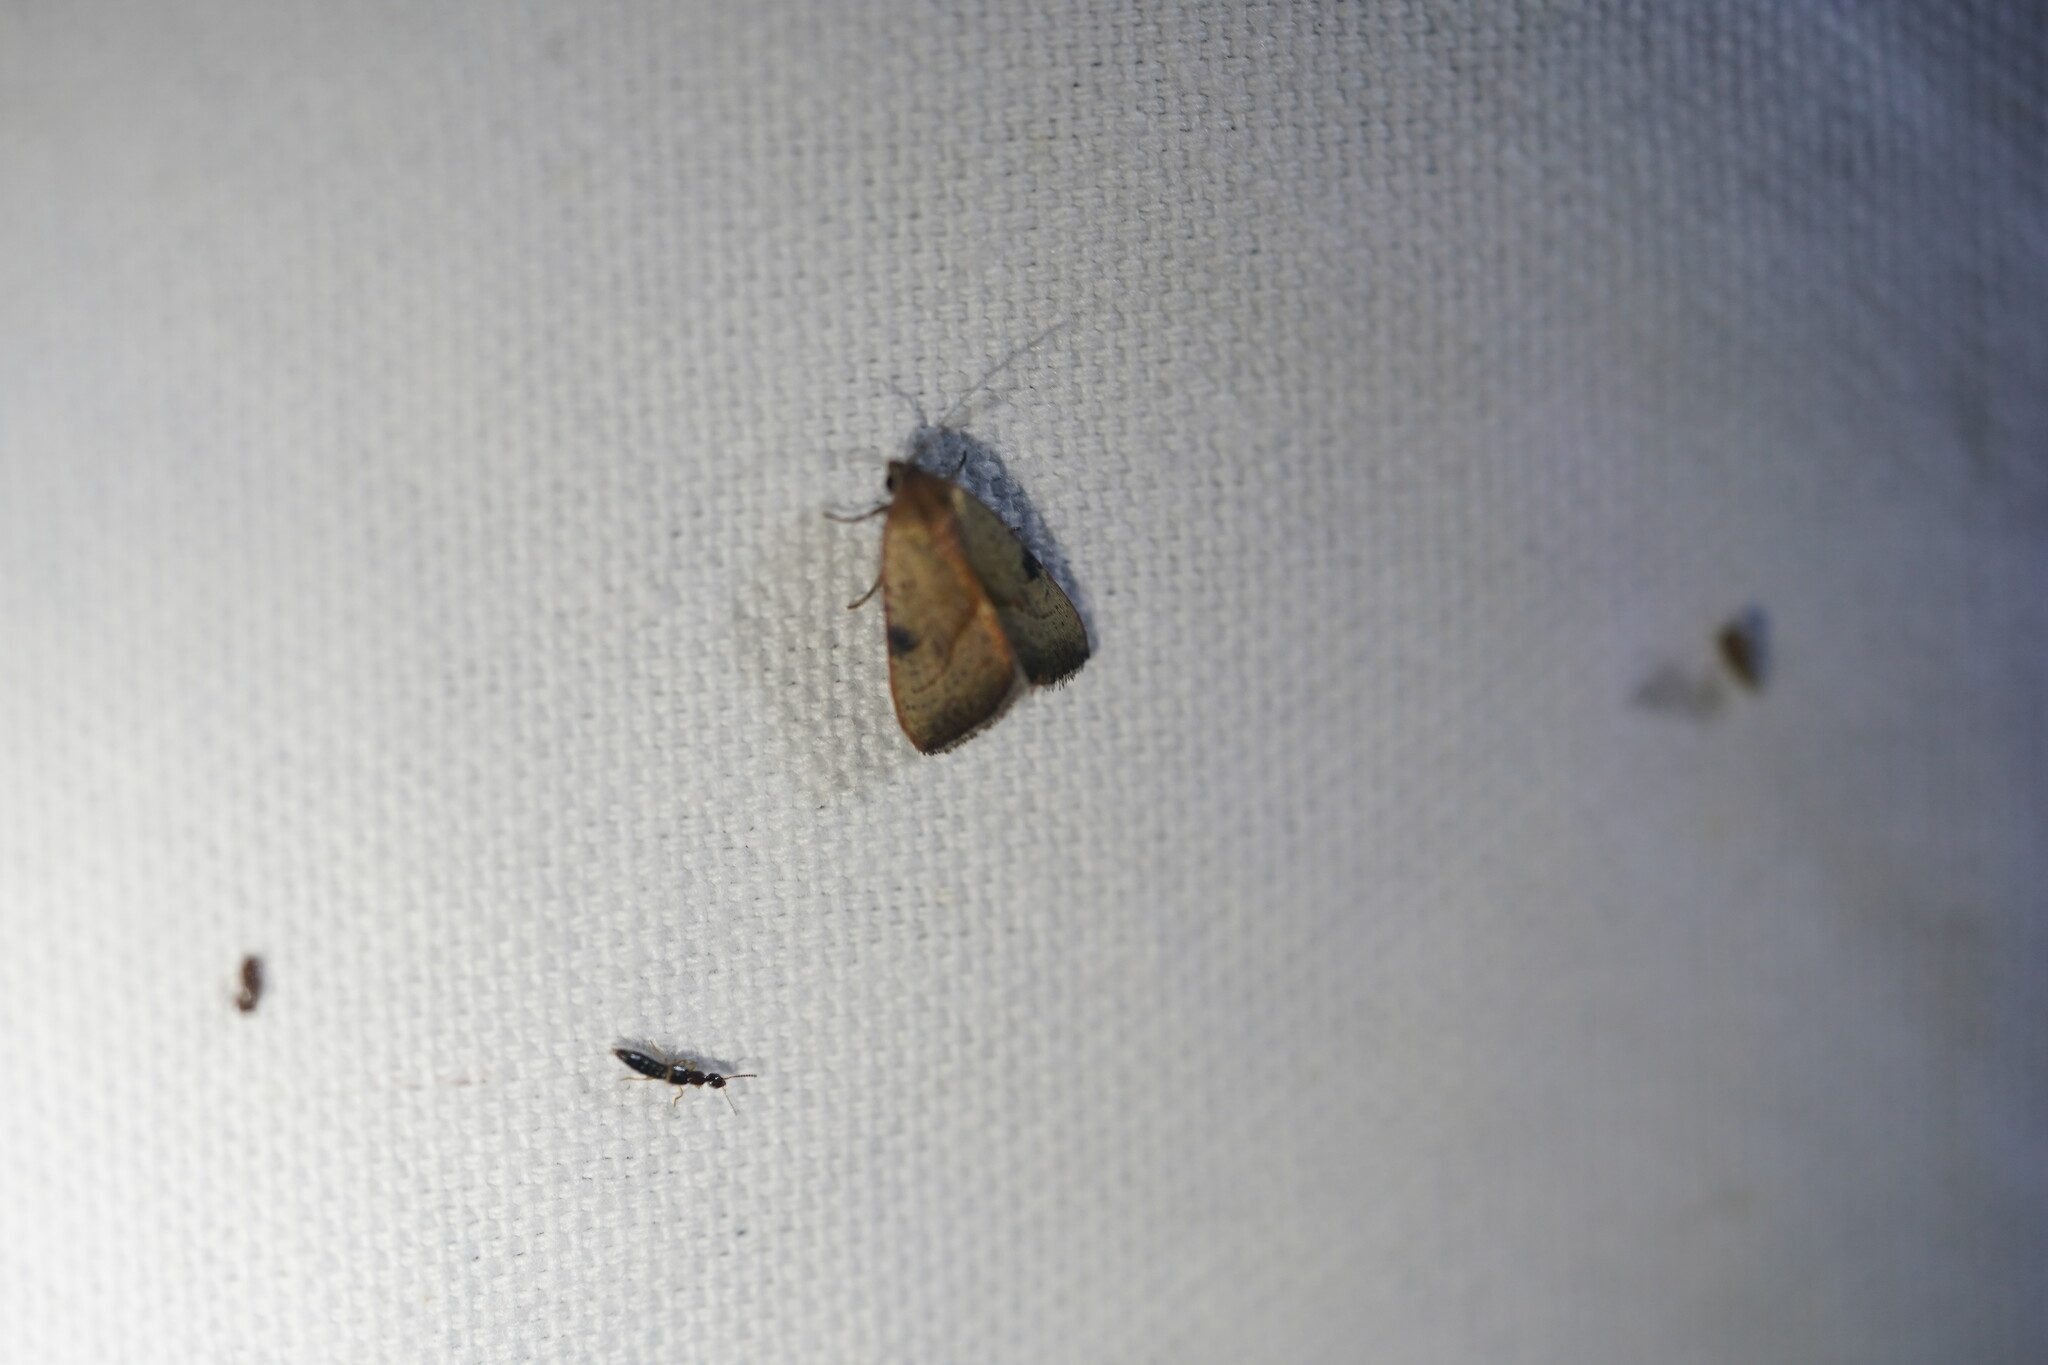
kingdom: Animalia
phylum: Arthropoda
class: Insecta
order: Lepidoptera
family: Noctuidae
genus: Galgula
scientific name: Galgula partita
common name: Wedgeling
